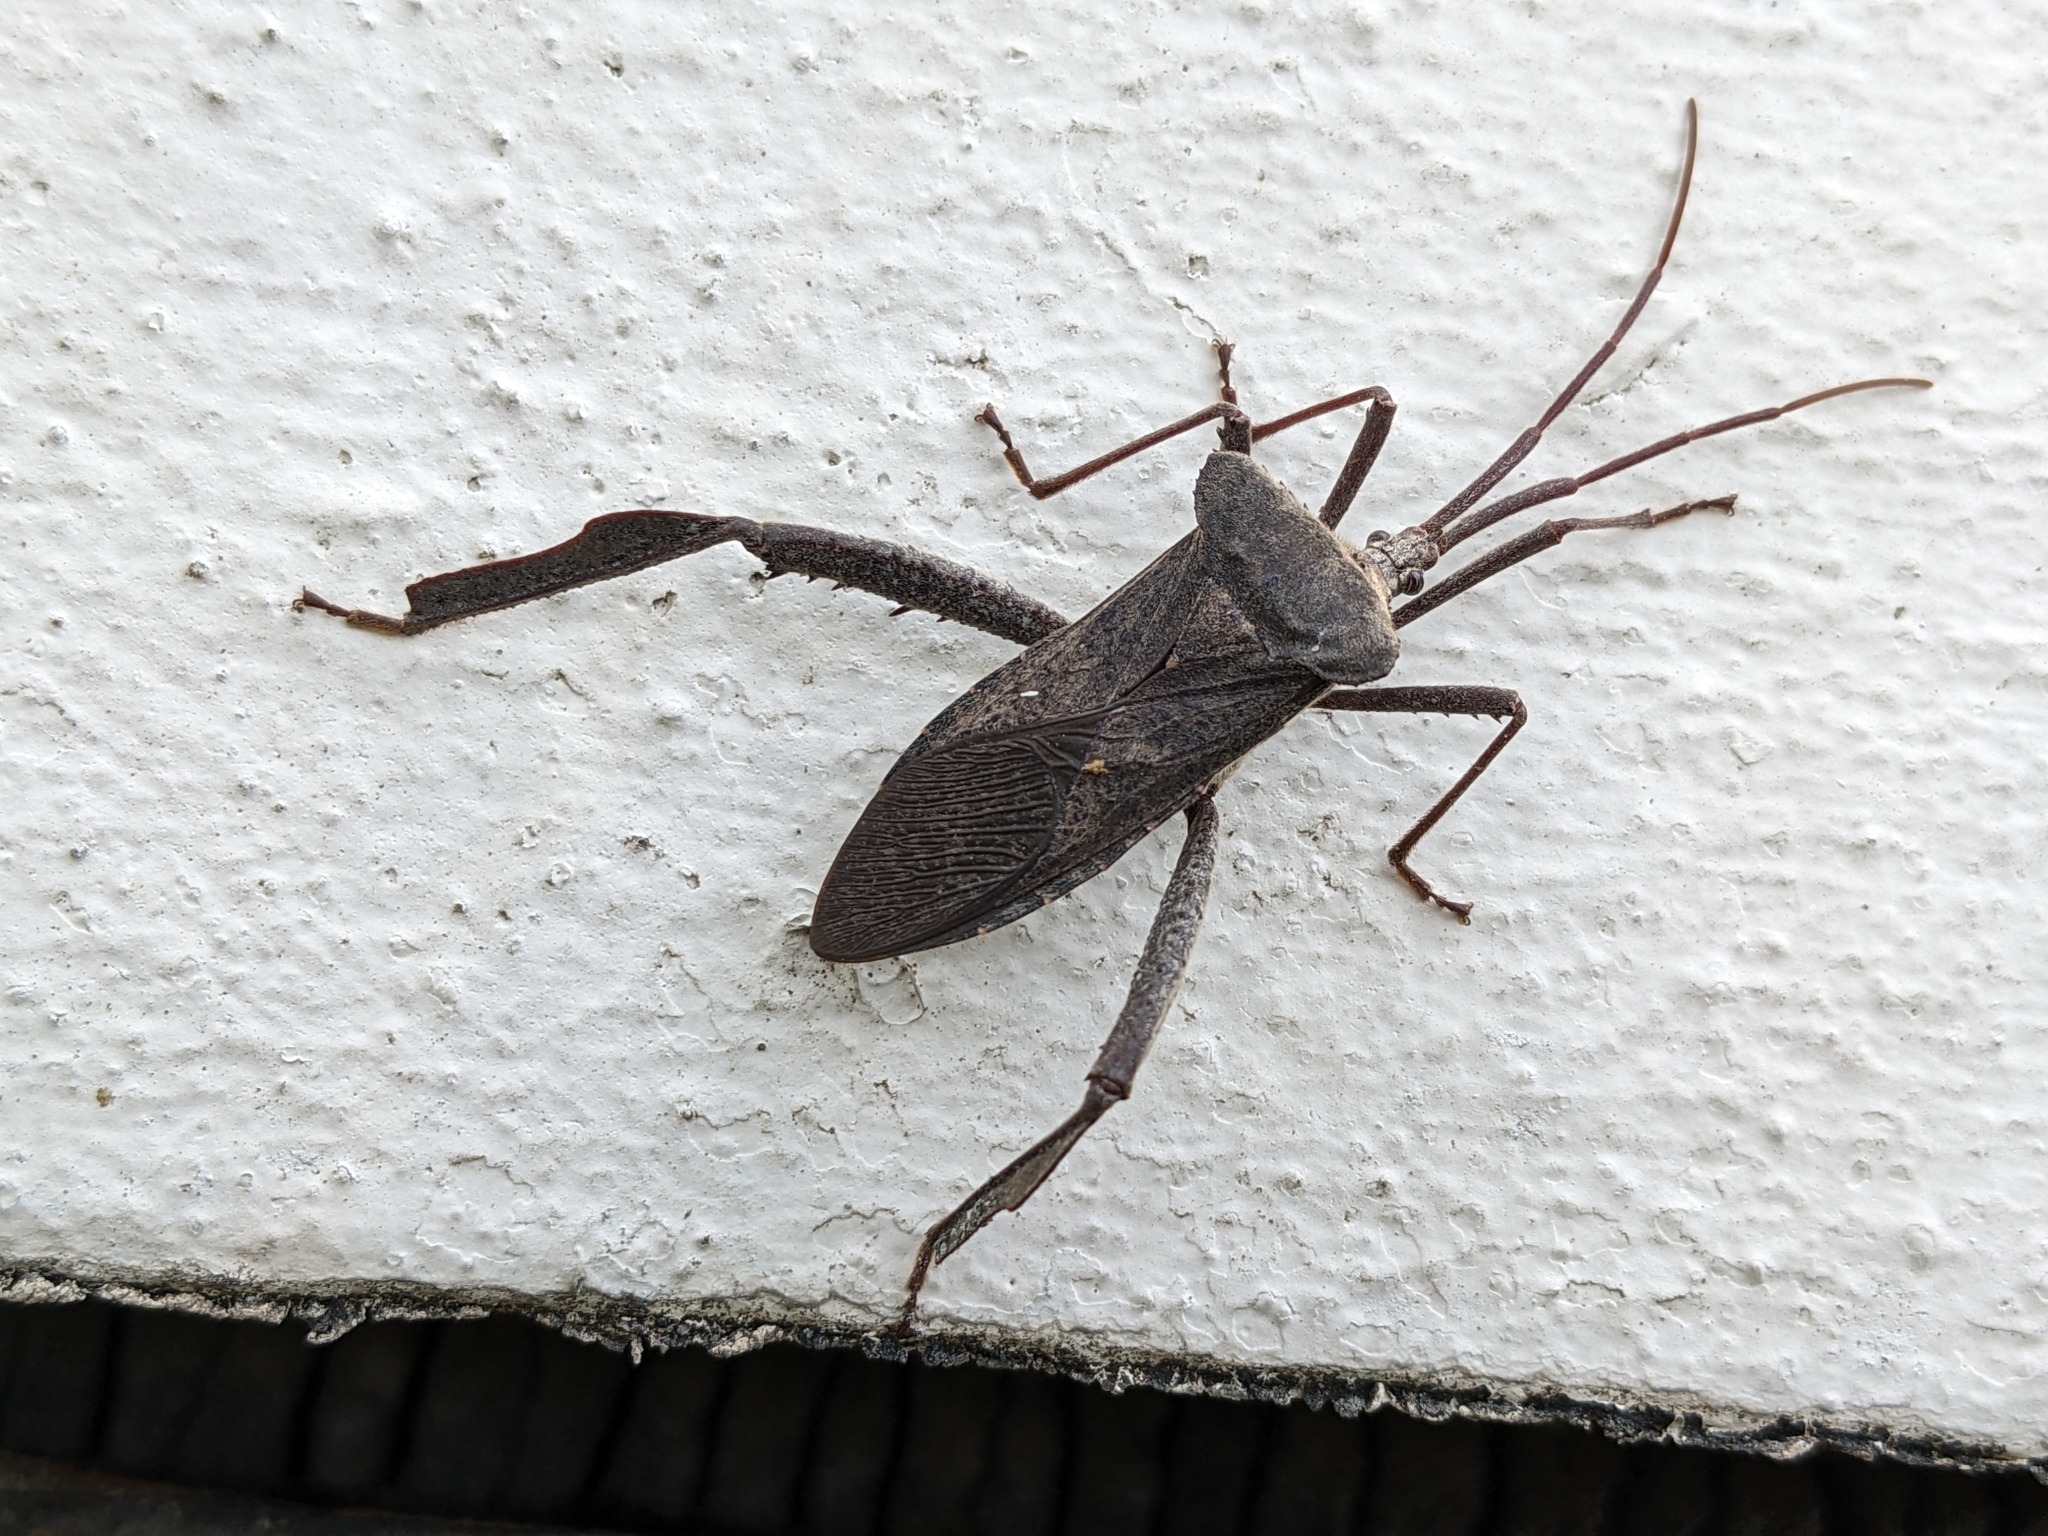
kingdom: Animalia
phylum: Arthropoda
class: Insecta
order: Hemiptera
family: Coreidae
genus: Acanthocephala
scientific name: Acanthocephala declivis
